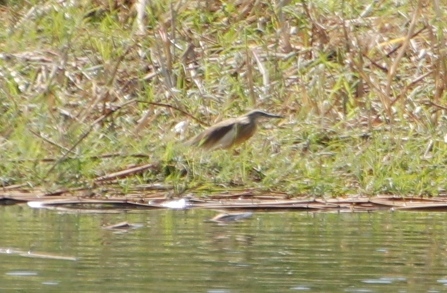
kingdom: Animalia
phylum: Chordata
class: Aves
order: Pelecaniformes
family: Ardeidae
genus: Ardeola
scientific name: Ardeola ralloides
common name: Squacco heron
